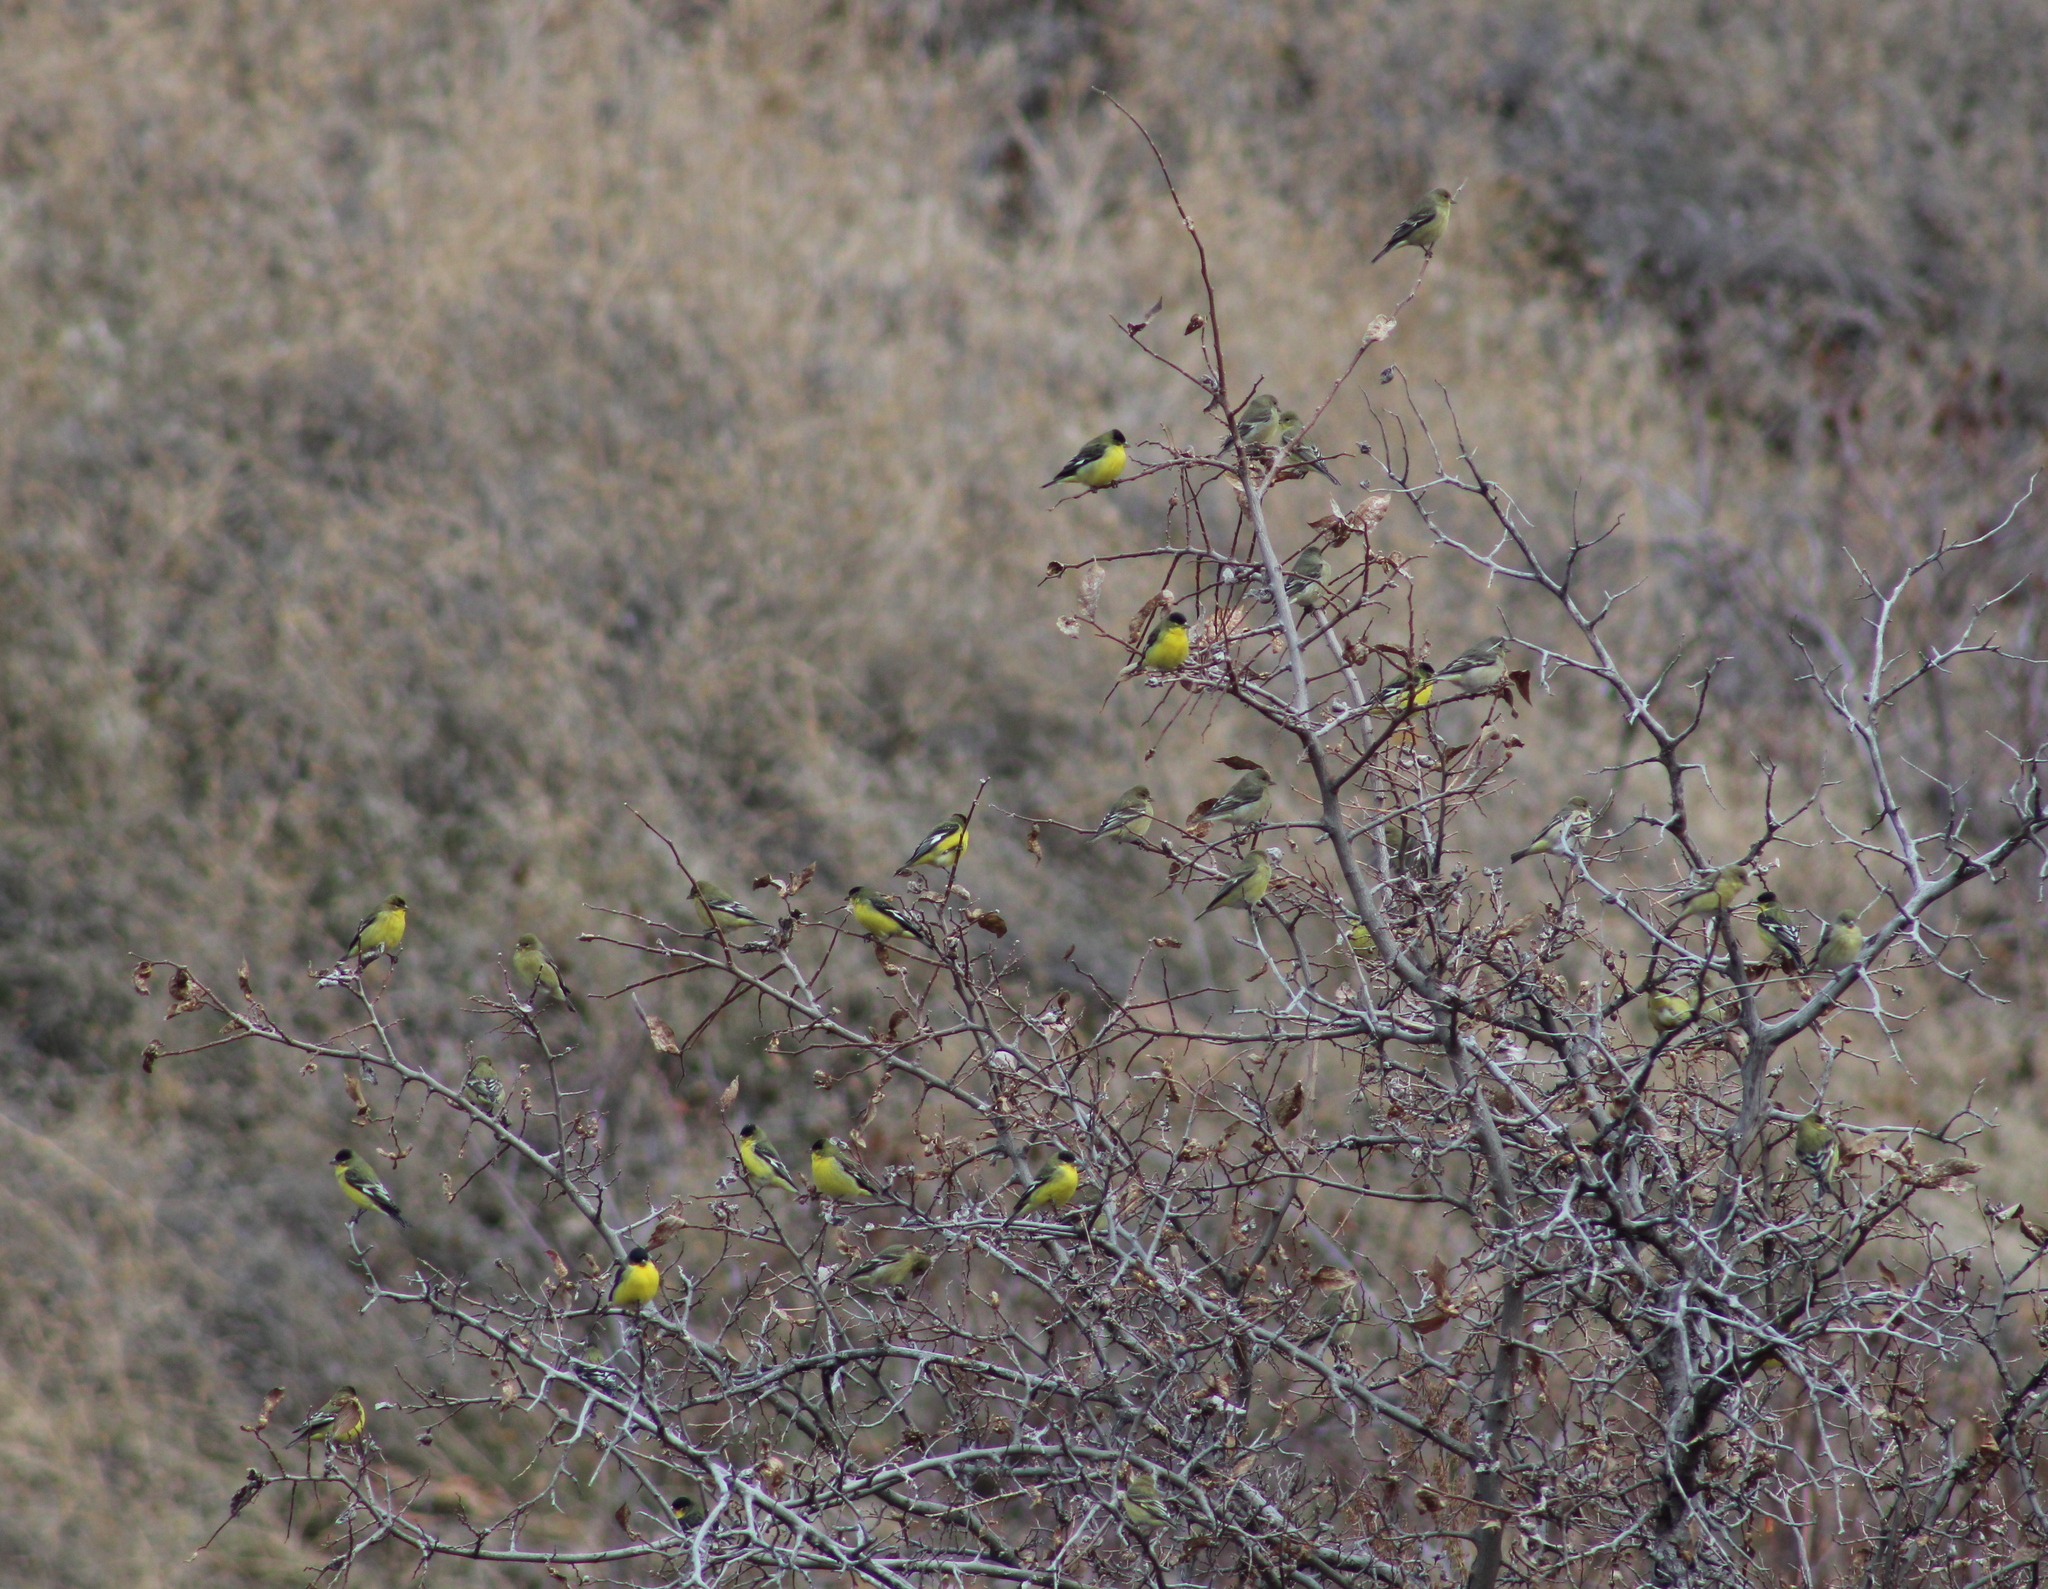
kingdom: Animalia
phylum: Chordata
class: Aves
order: Passeriformes
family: Fringillidae
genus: Spinus
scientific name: Spinus psaltria
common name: Lesser goldfinch
